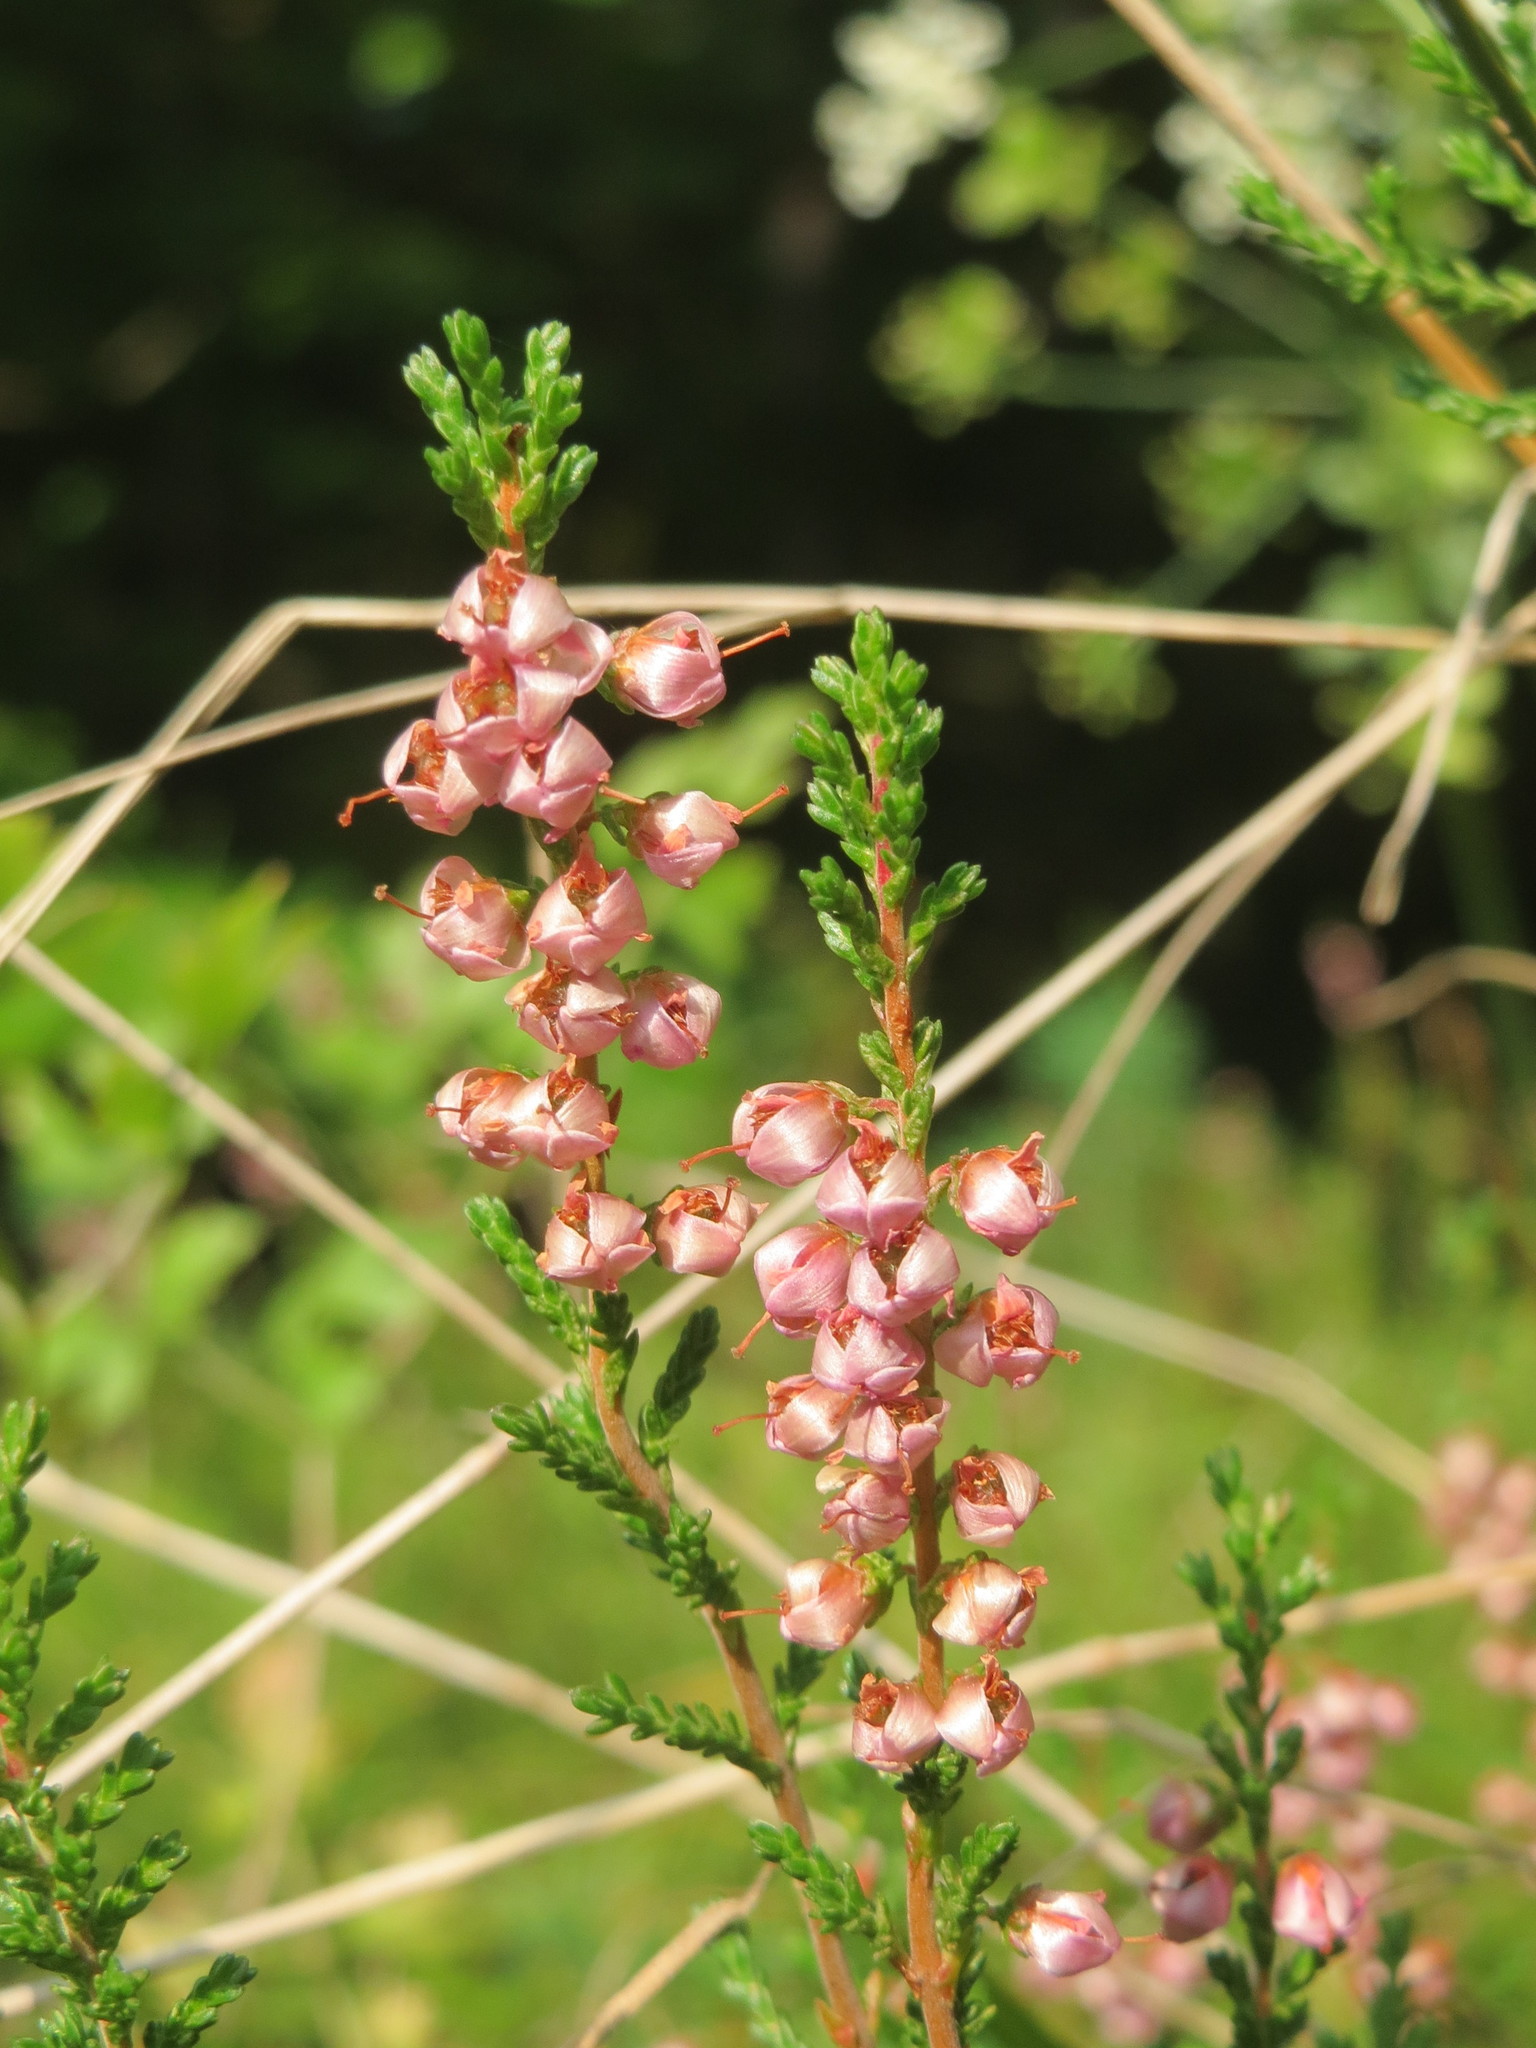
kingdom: Plantae
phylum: Tracheophyta
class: Magnoliopsida
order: Ericales
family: Ericaceae
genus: Calluna
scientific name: Calluna vulgaris
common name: Heather
